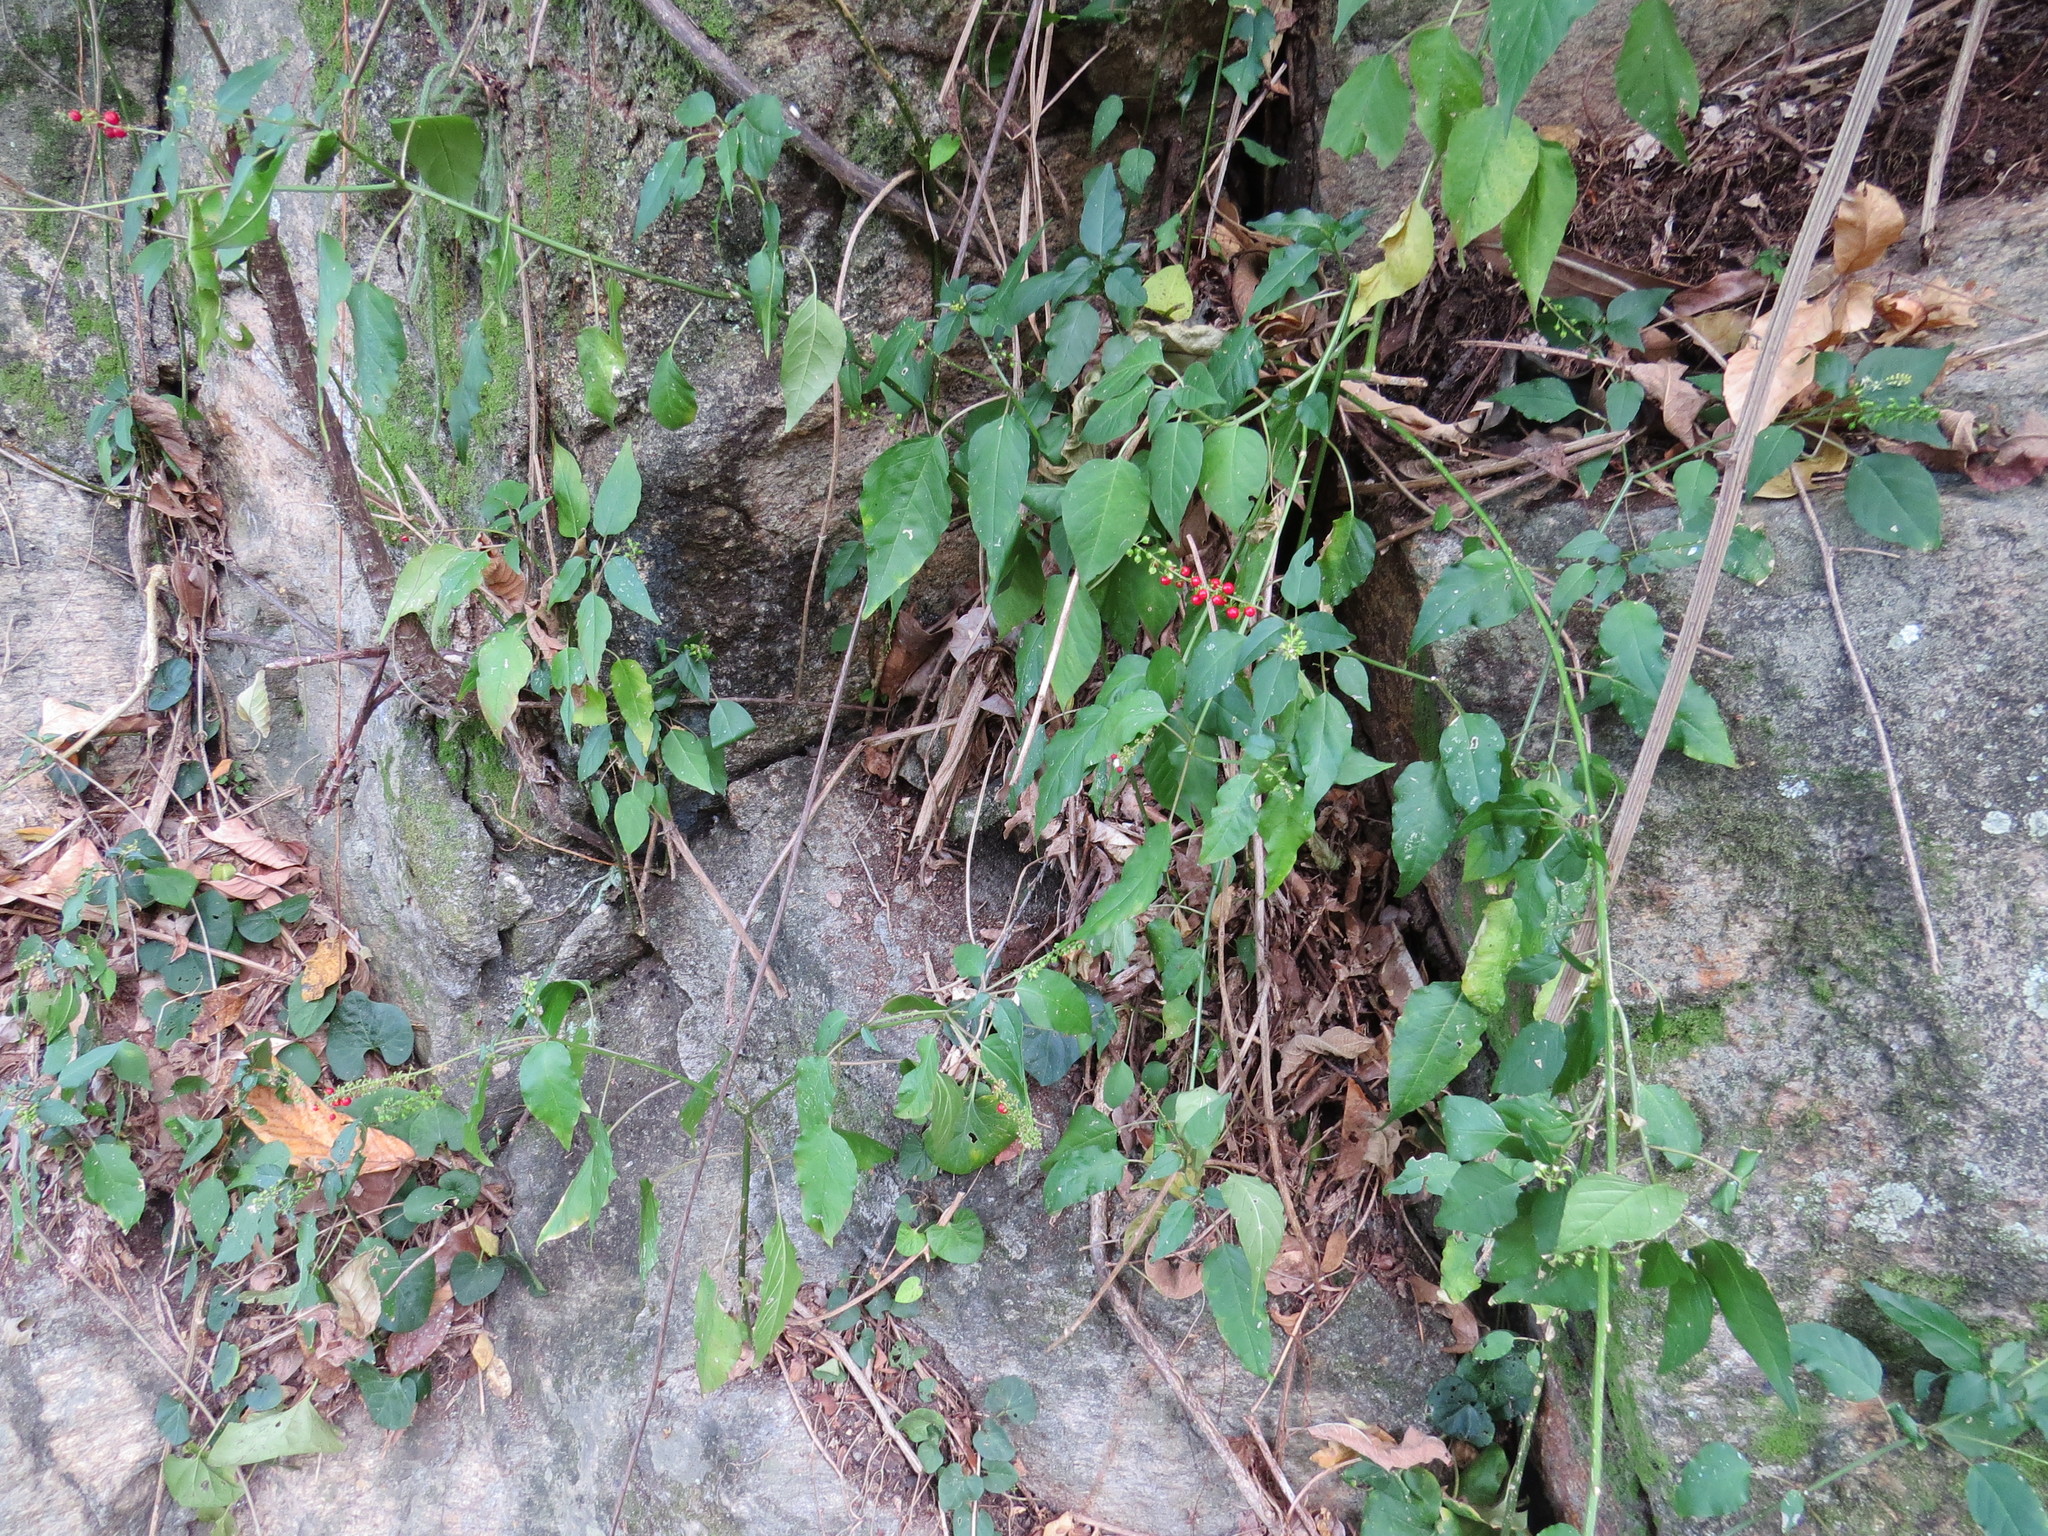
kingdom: Plantae
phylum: Tracheophyta
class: Magnoliopsida
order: Caryophyllales
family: Phytolaccaceae
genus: Rivina
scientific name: Rivina humilis
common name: Rougeplant
